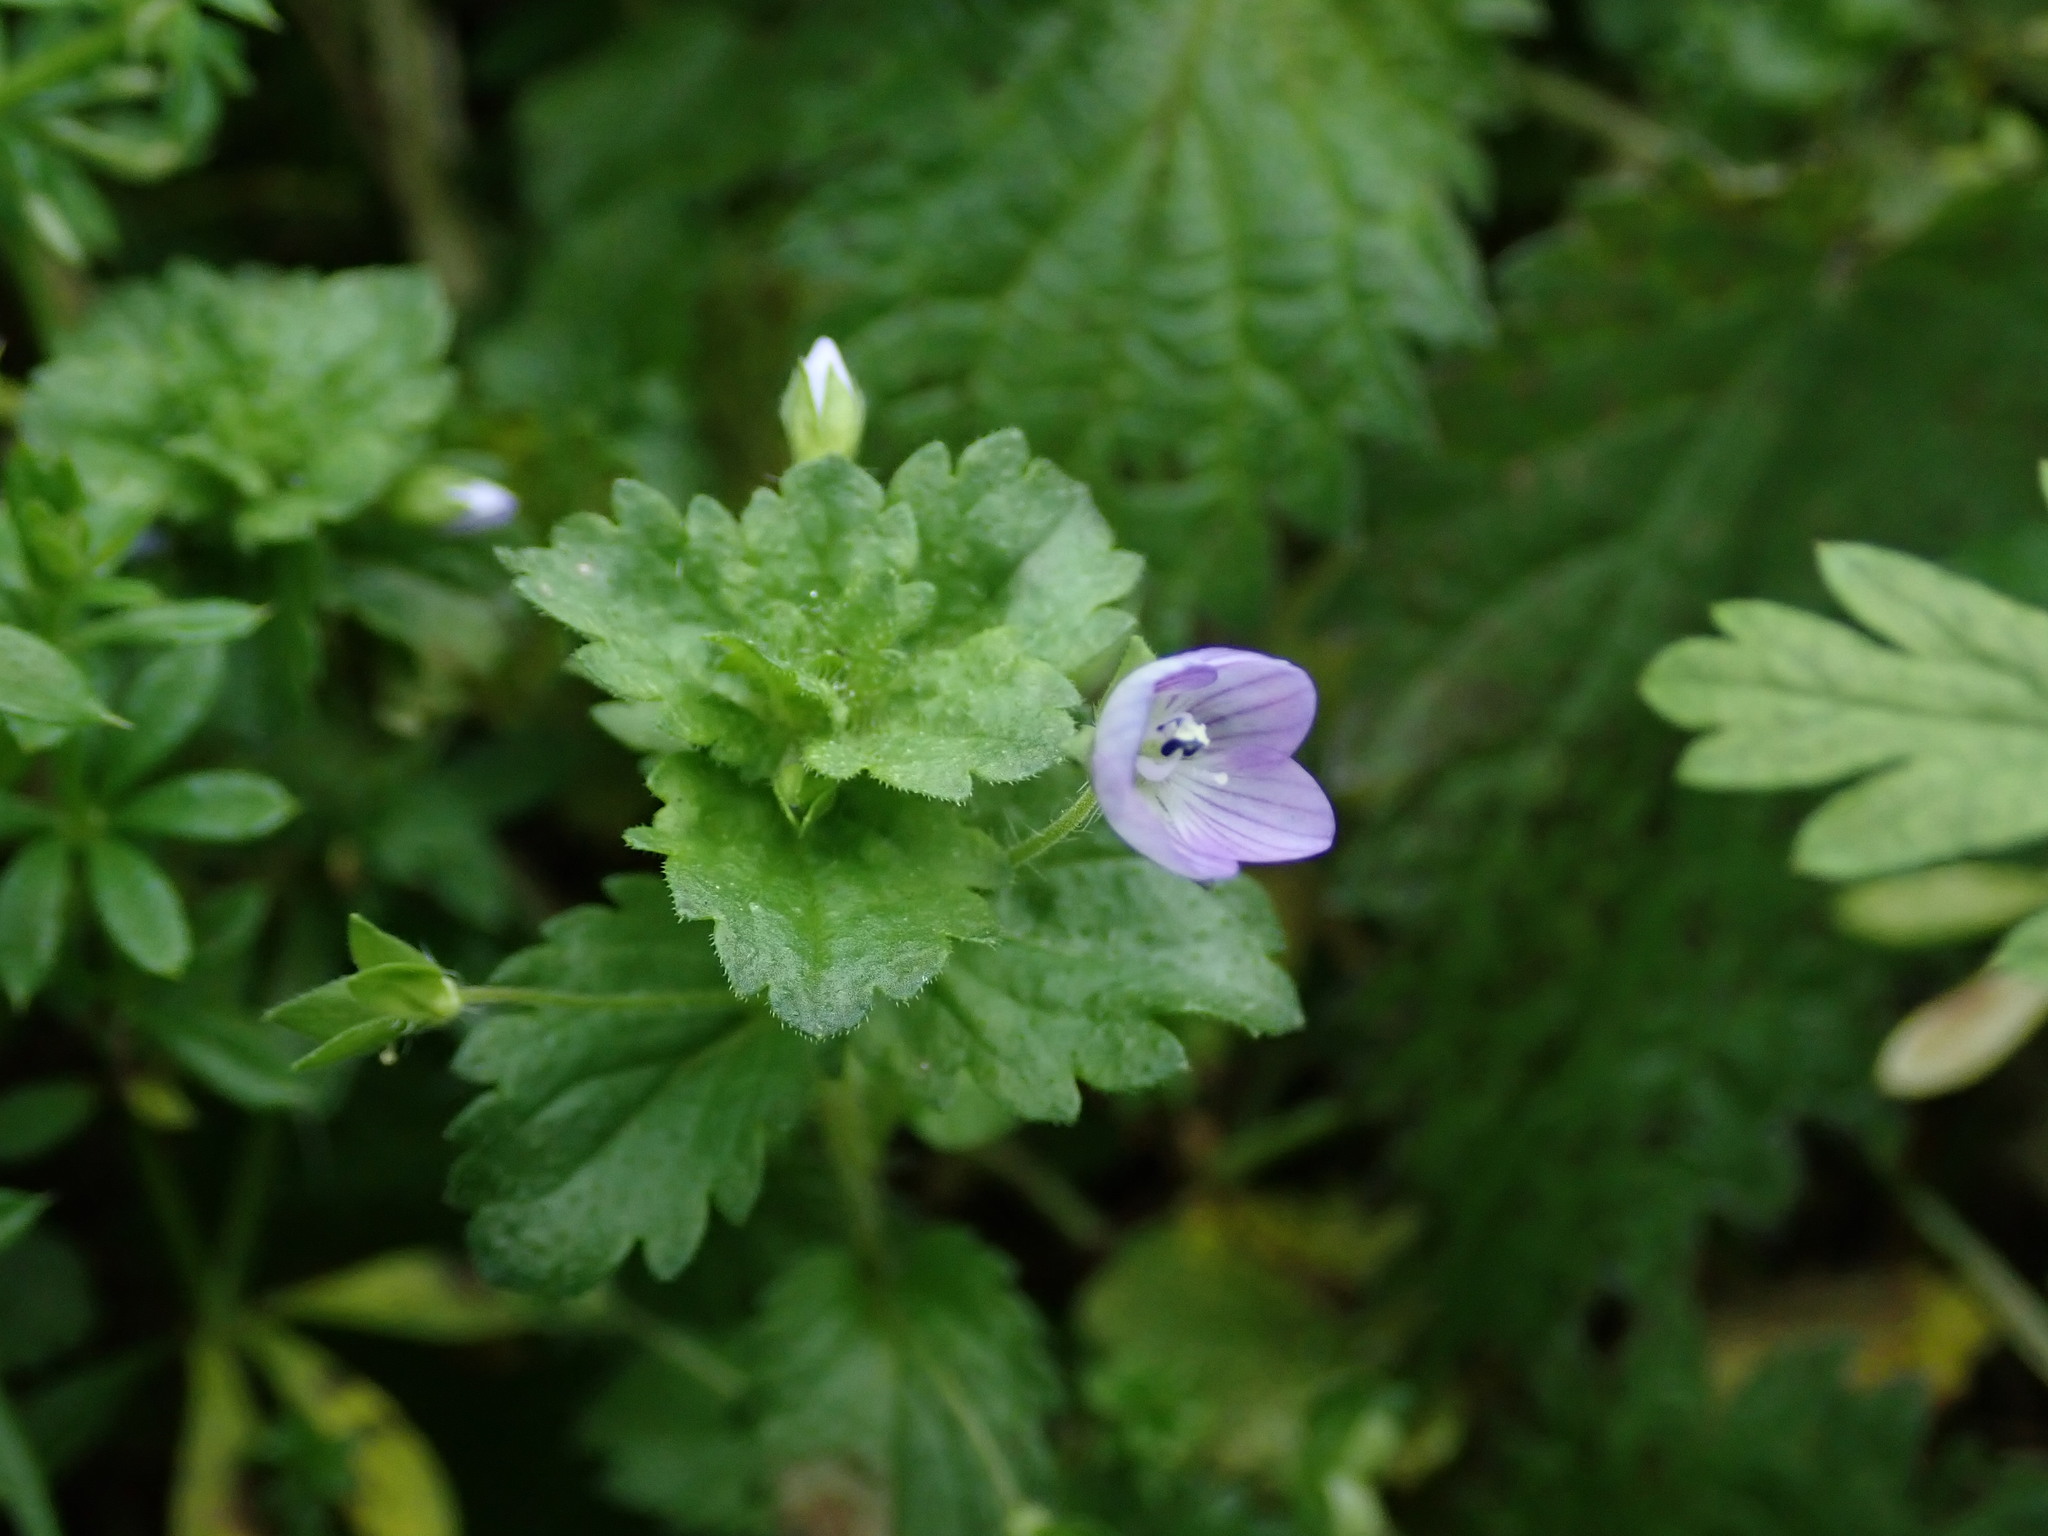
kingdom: Plantae
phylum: Tracheophyta
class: Magnoliopsida
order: Lamiales
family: Plantaginaceae
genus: Veronica
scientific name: Veronica persica
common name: Common field-speedwell
